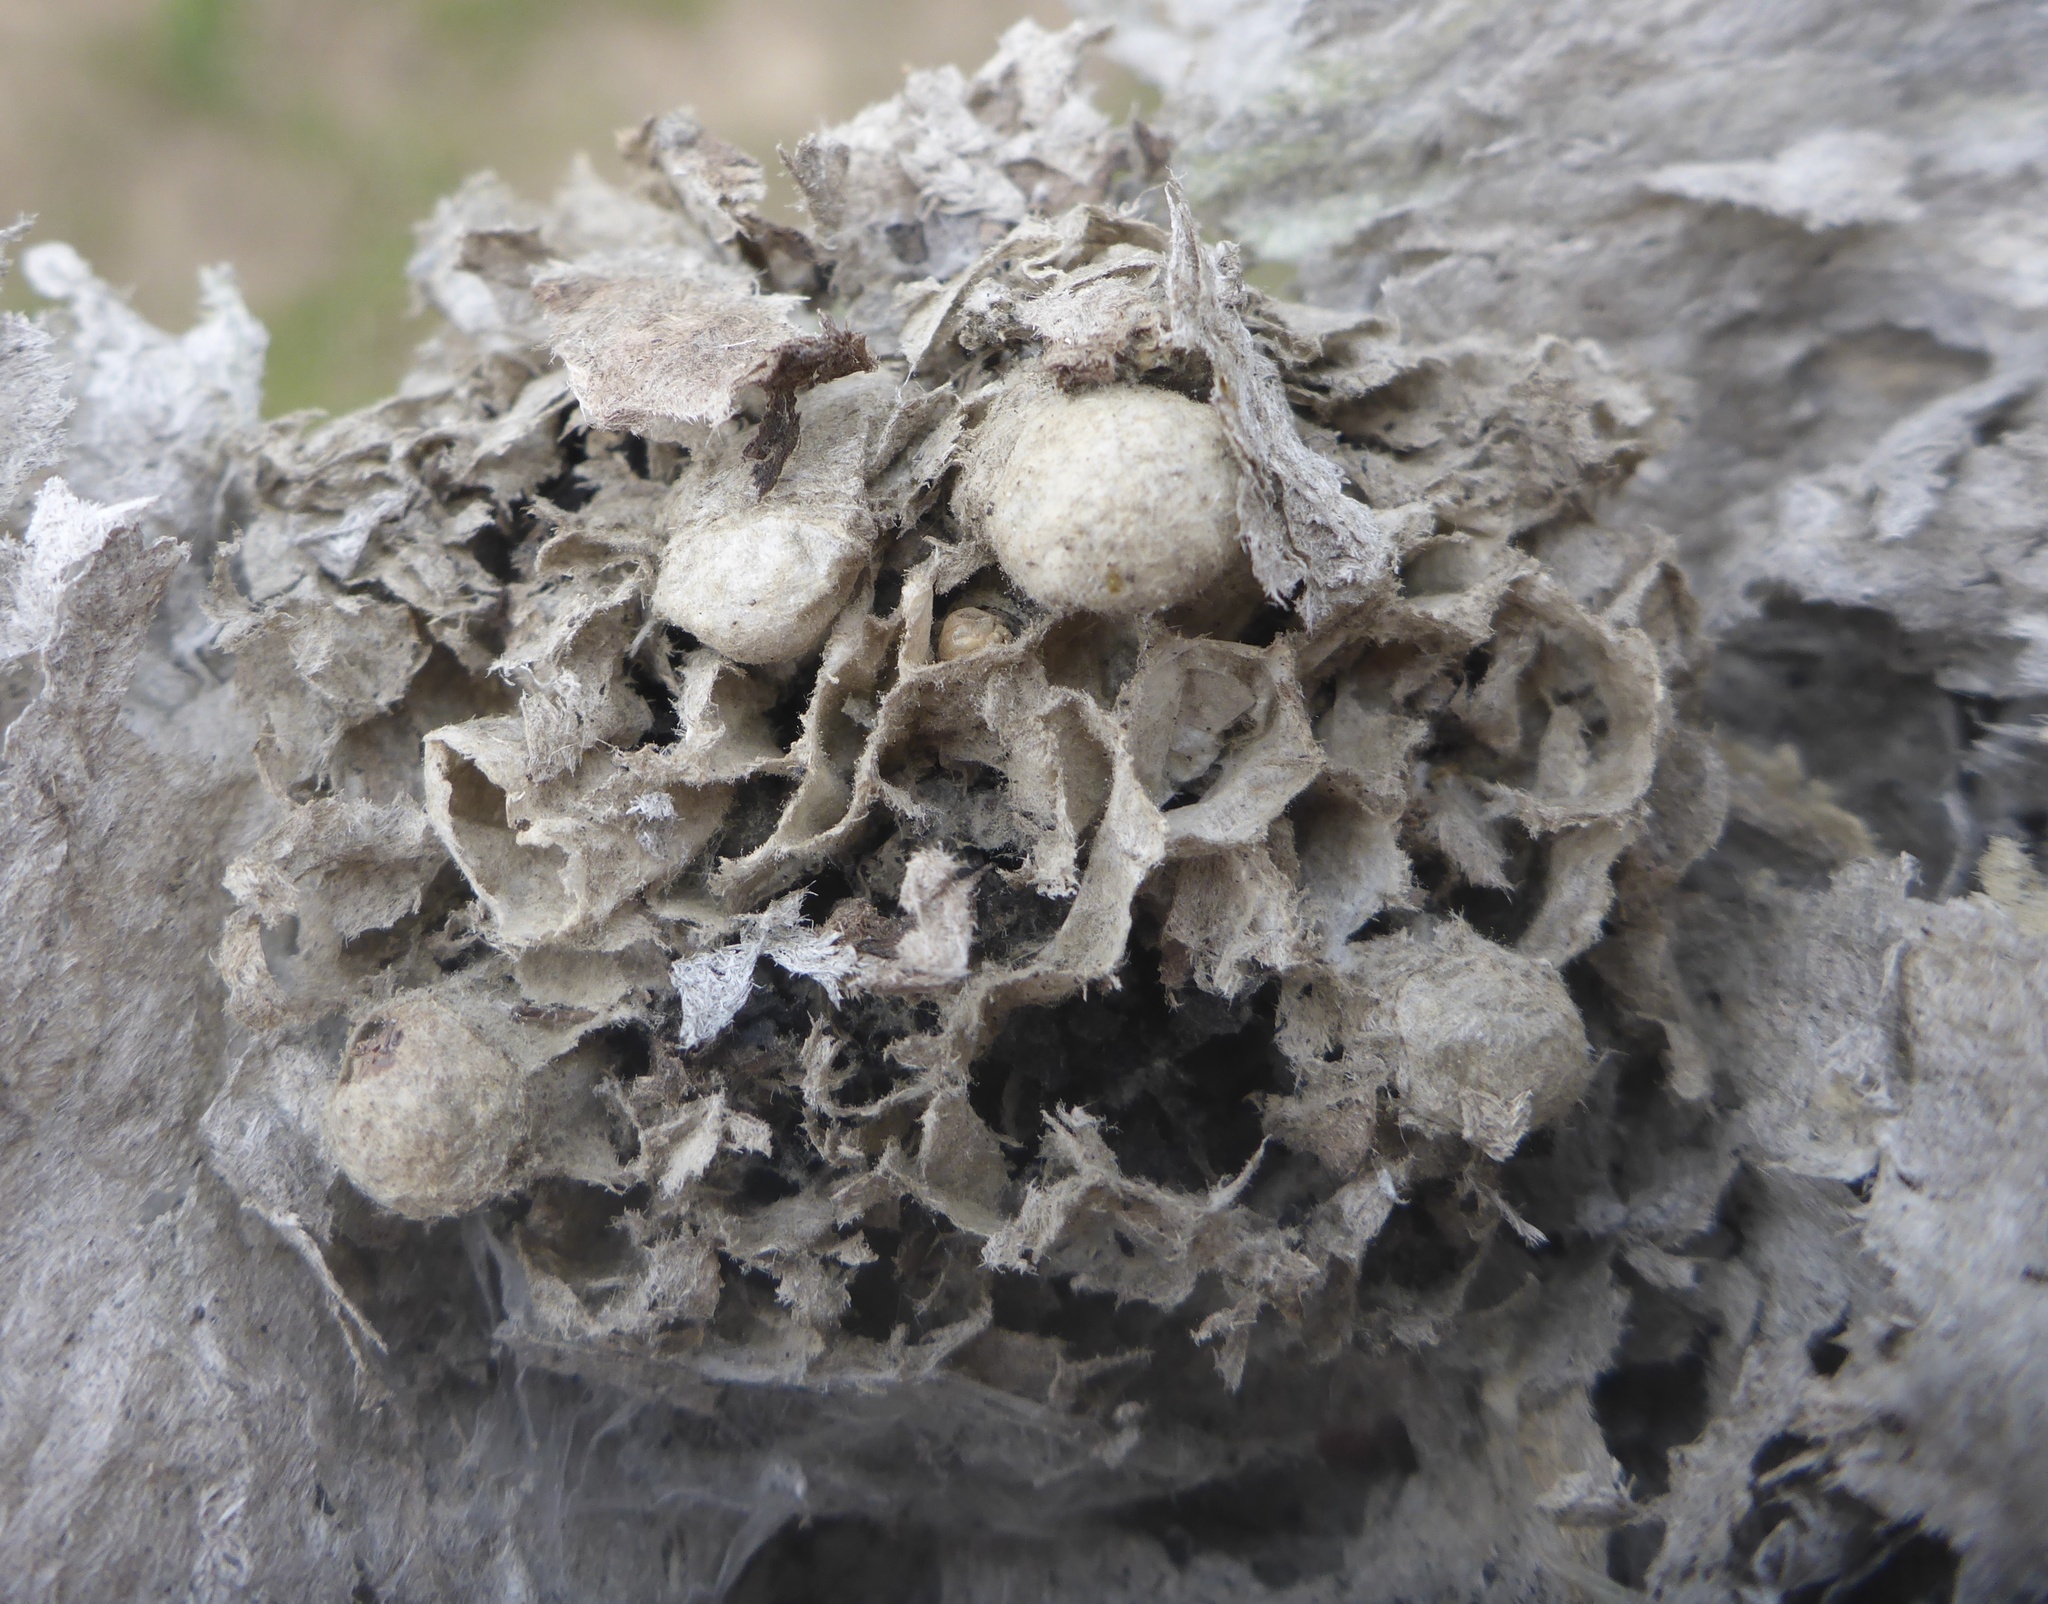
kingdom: Animalia
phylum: Arthropoda
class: Insecta
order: Hymenoptera
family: Vespidae
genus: Dolichovespula
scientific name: Dolichovespula
